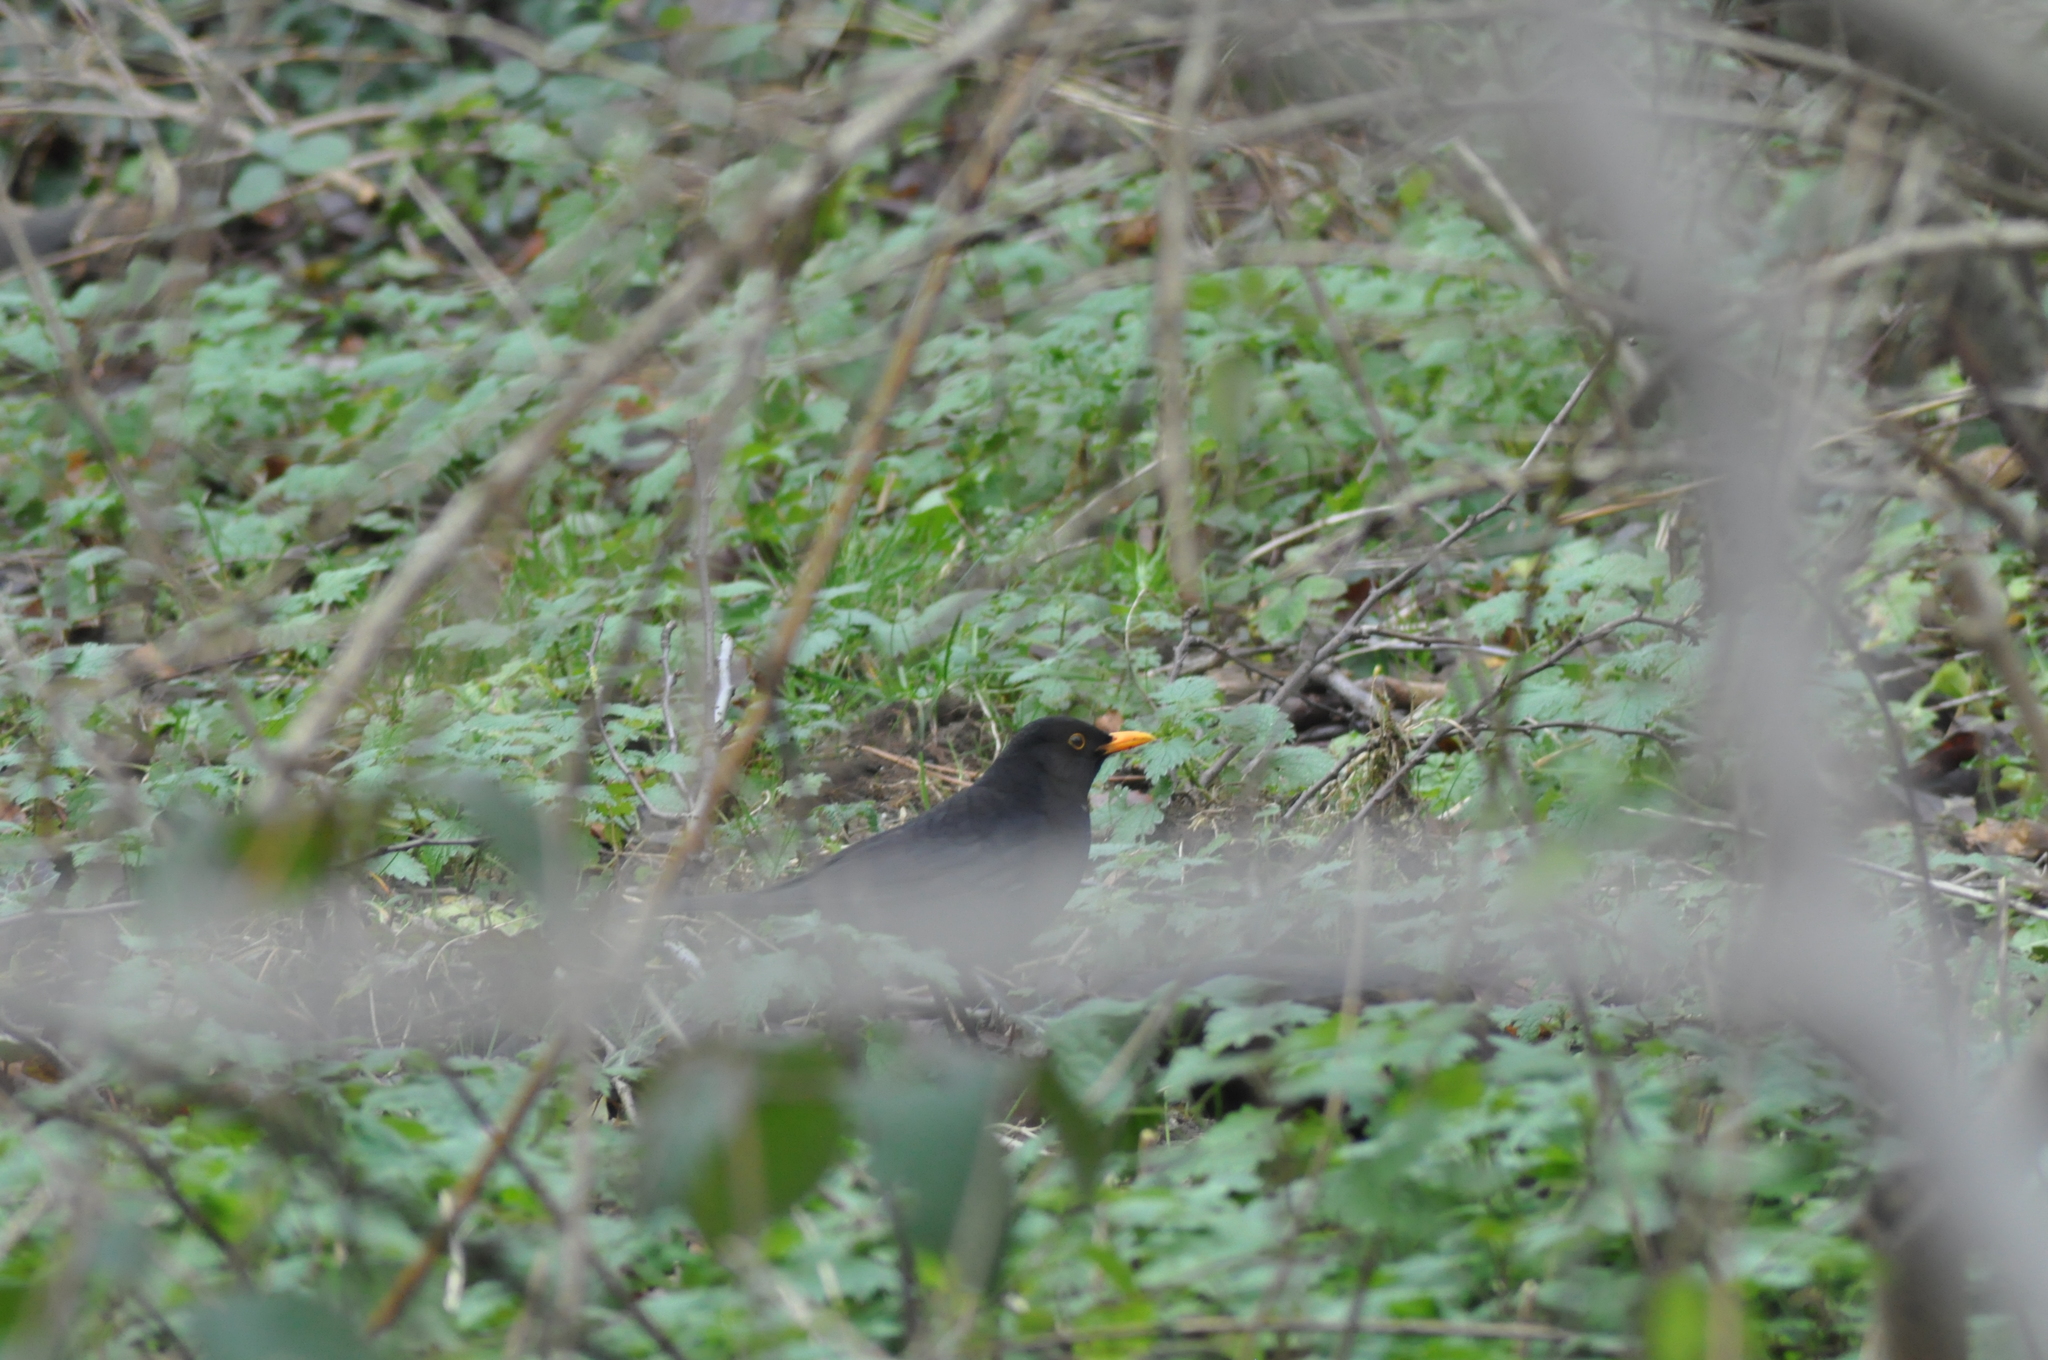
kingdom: Animalia
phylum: Chordata
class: Aves
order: Passeriformes
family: Turdidae
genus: Turdus
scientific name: Turdus merula
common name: Common blackbird
